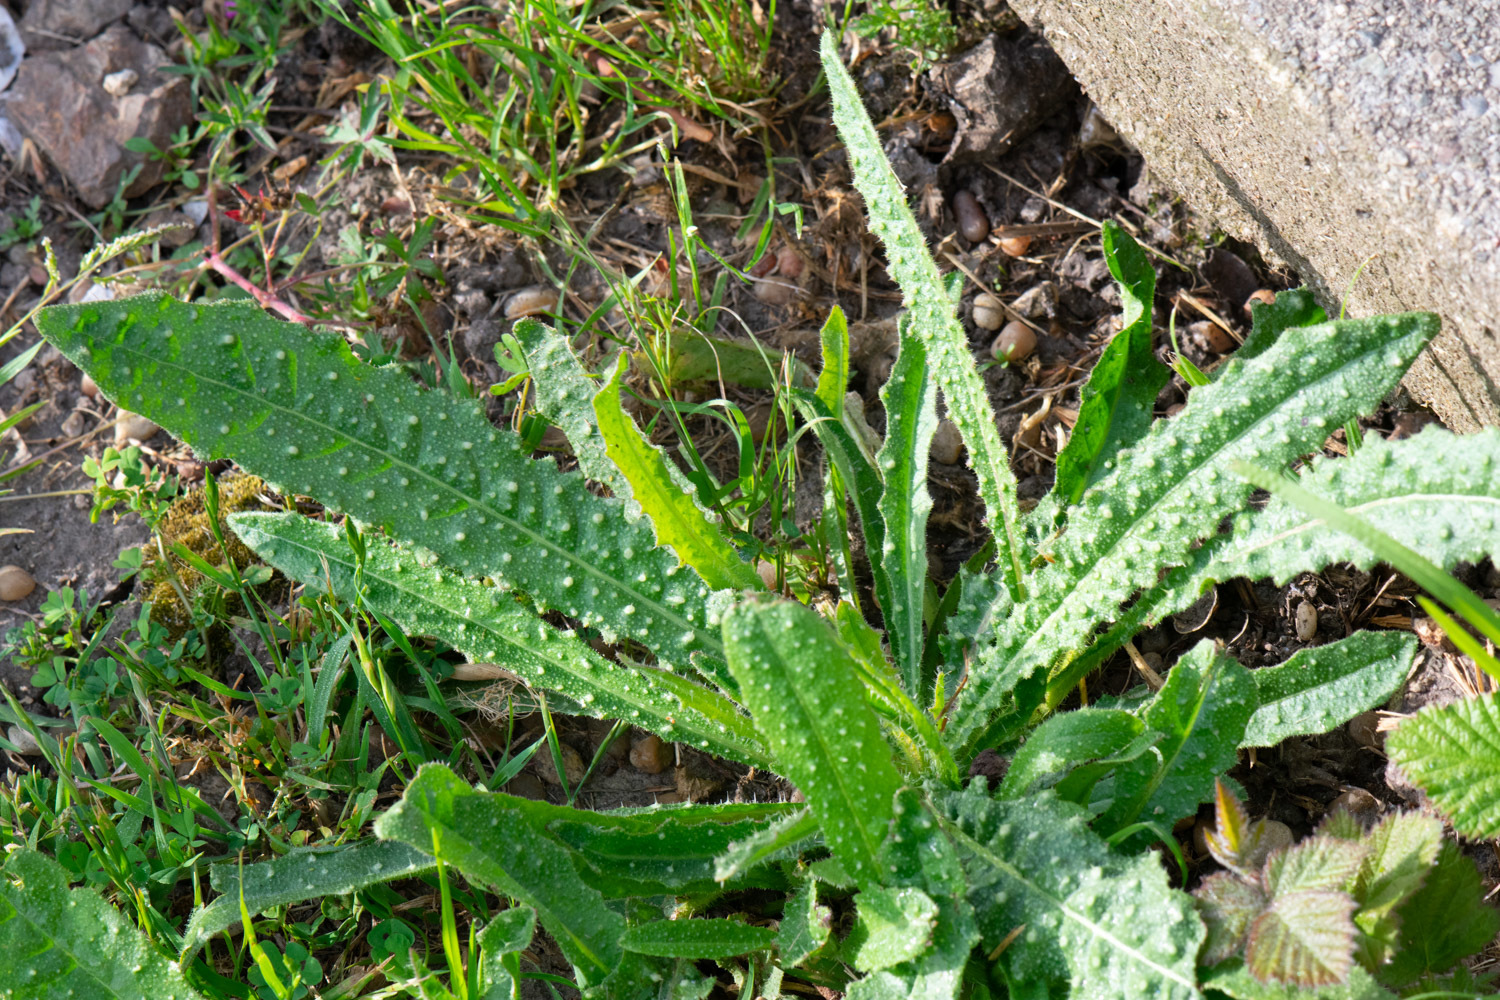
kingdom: Plantae
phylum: Tracheophyta
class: Magnoliopsida
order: Asterales
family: Asteraceae
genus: Helminthotheca
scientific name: Helminthotheca echioides
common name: Ox-tongue
